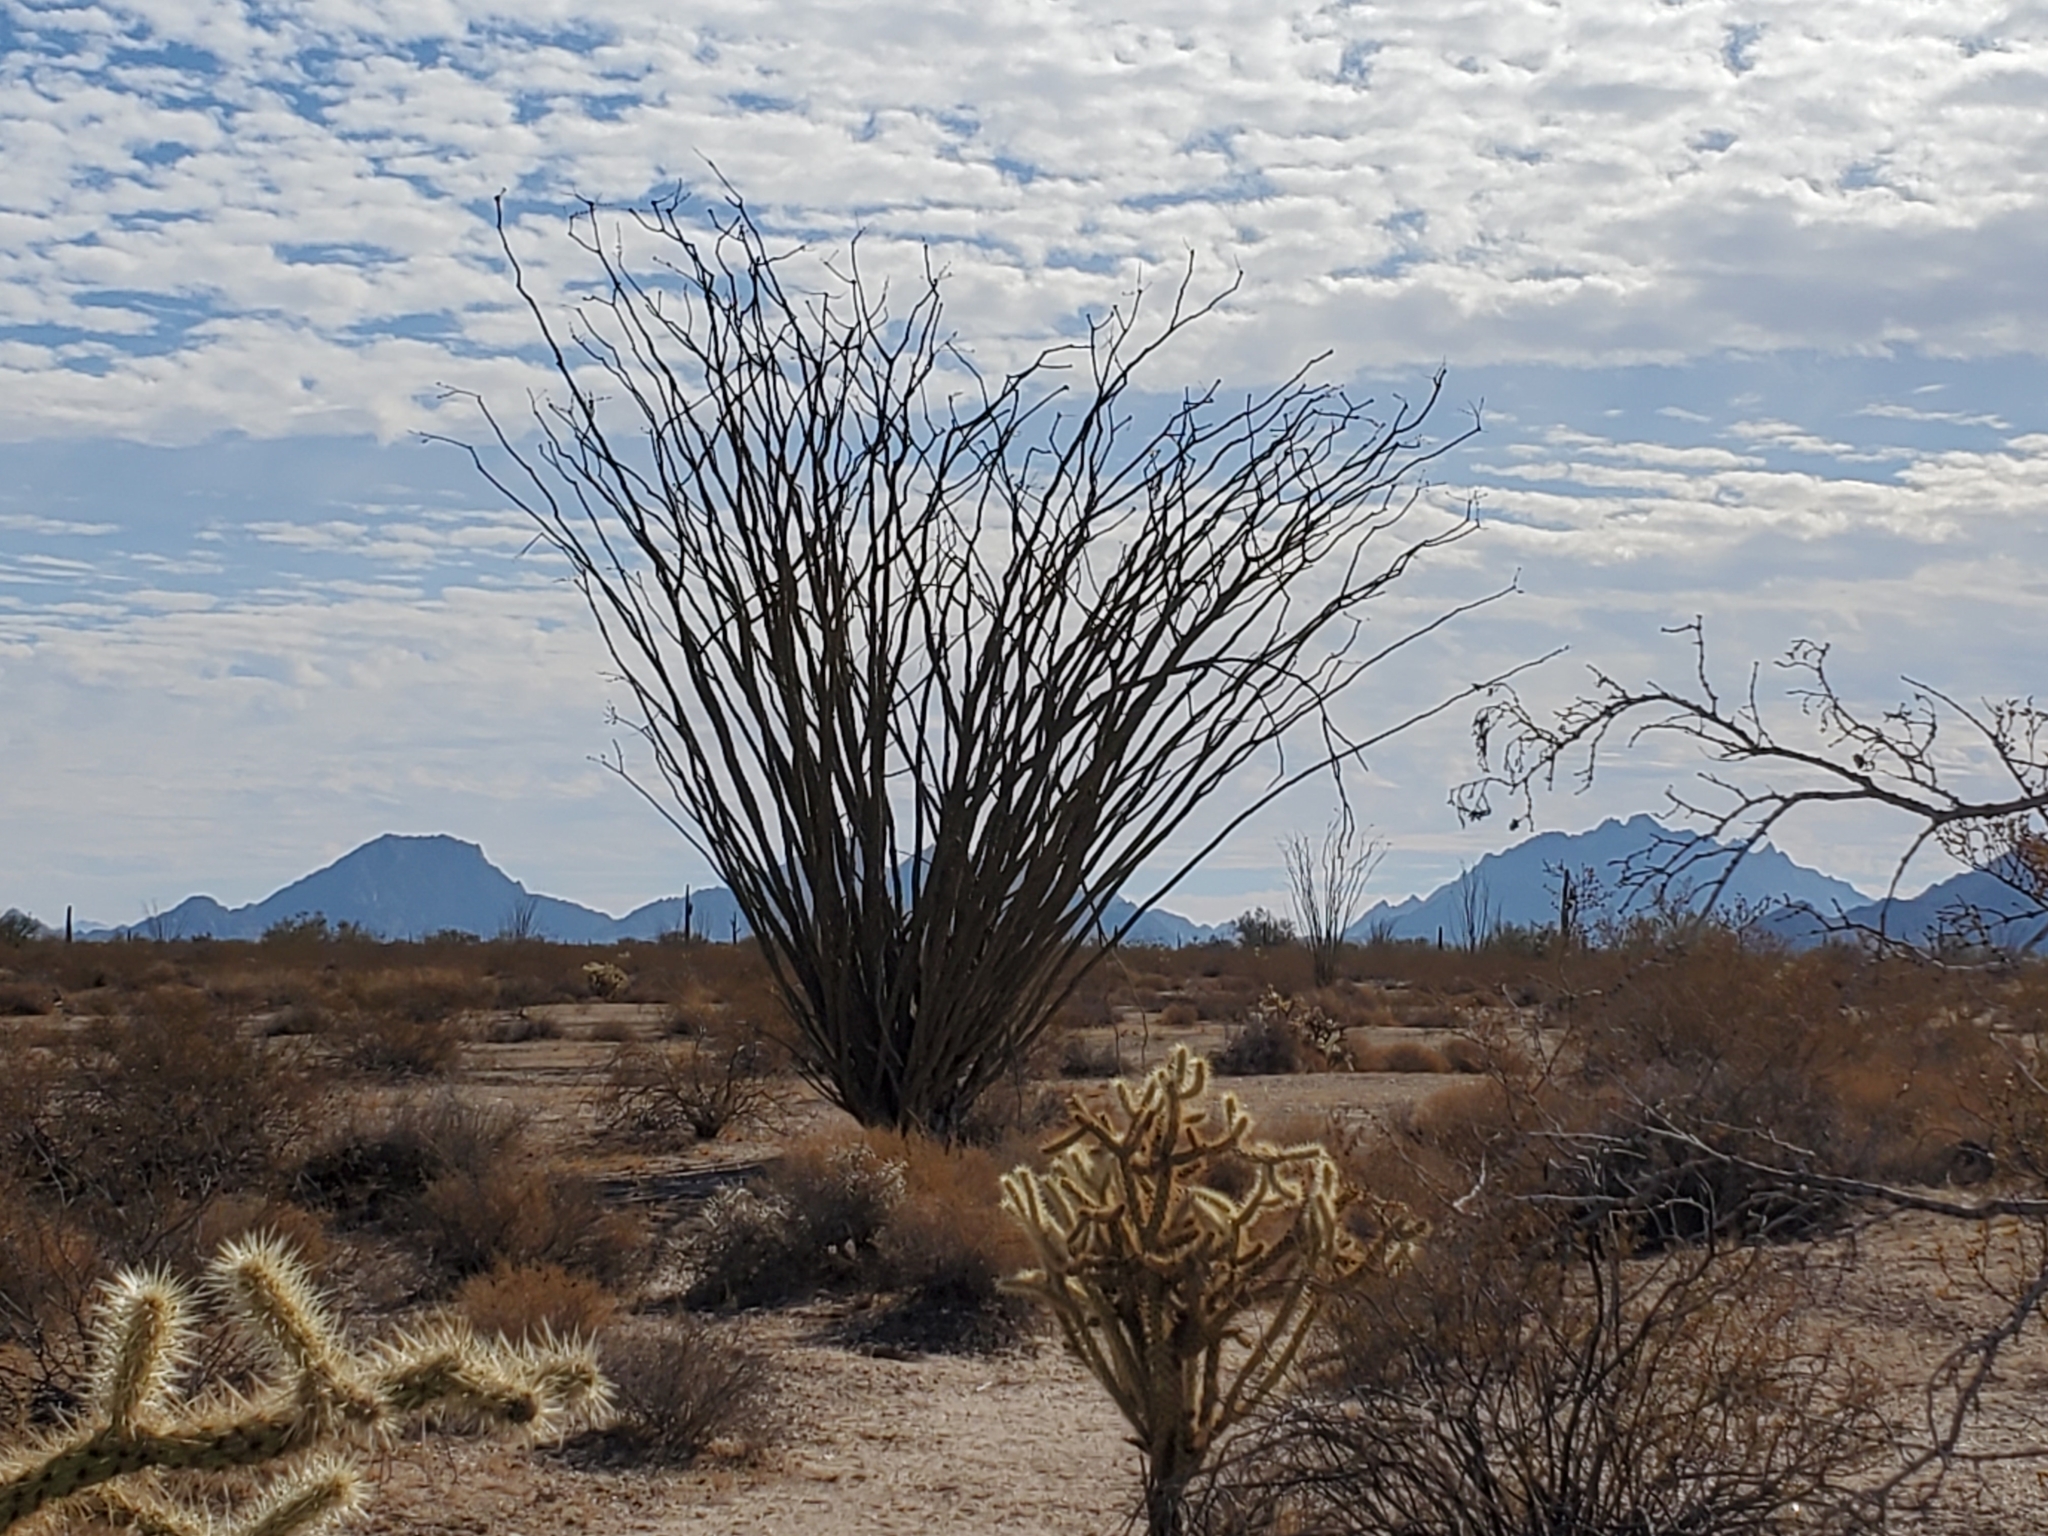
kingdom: Plantae
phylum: Tracheophyta
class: Magnoliopsida
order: Ericales
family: Fouquieriaceae
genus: Fouquieria
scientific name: Fouquieria splendens
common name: Vine-cactus
